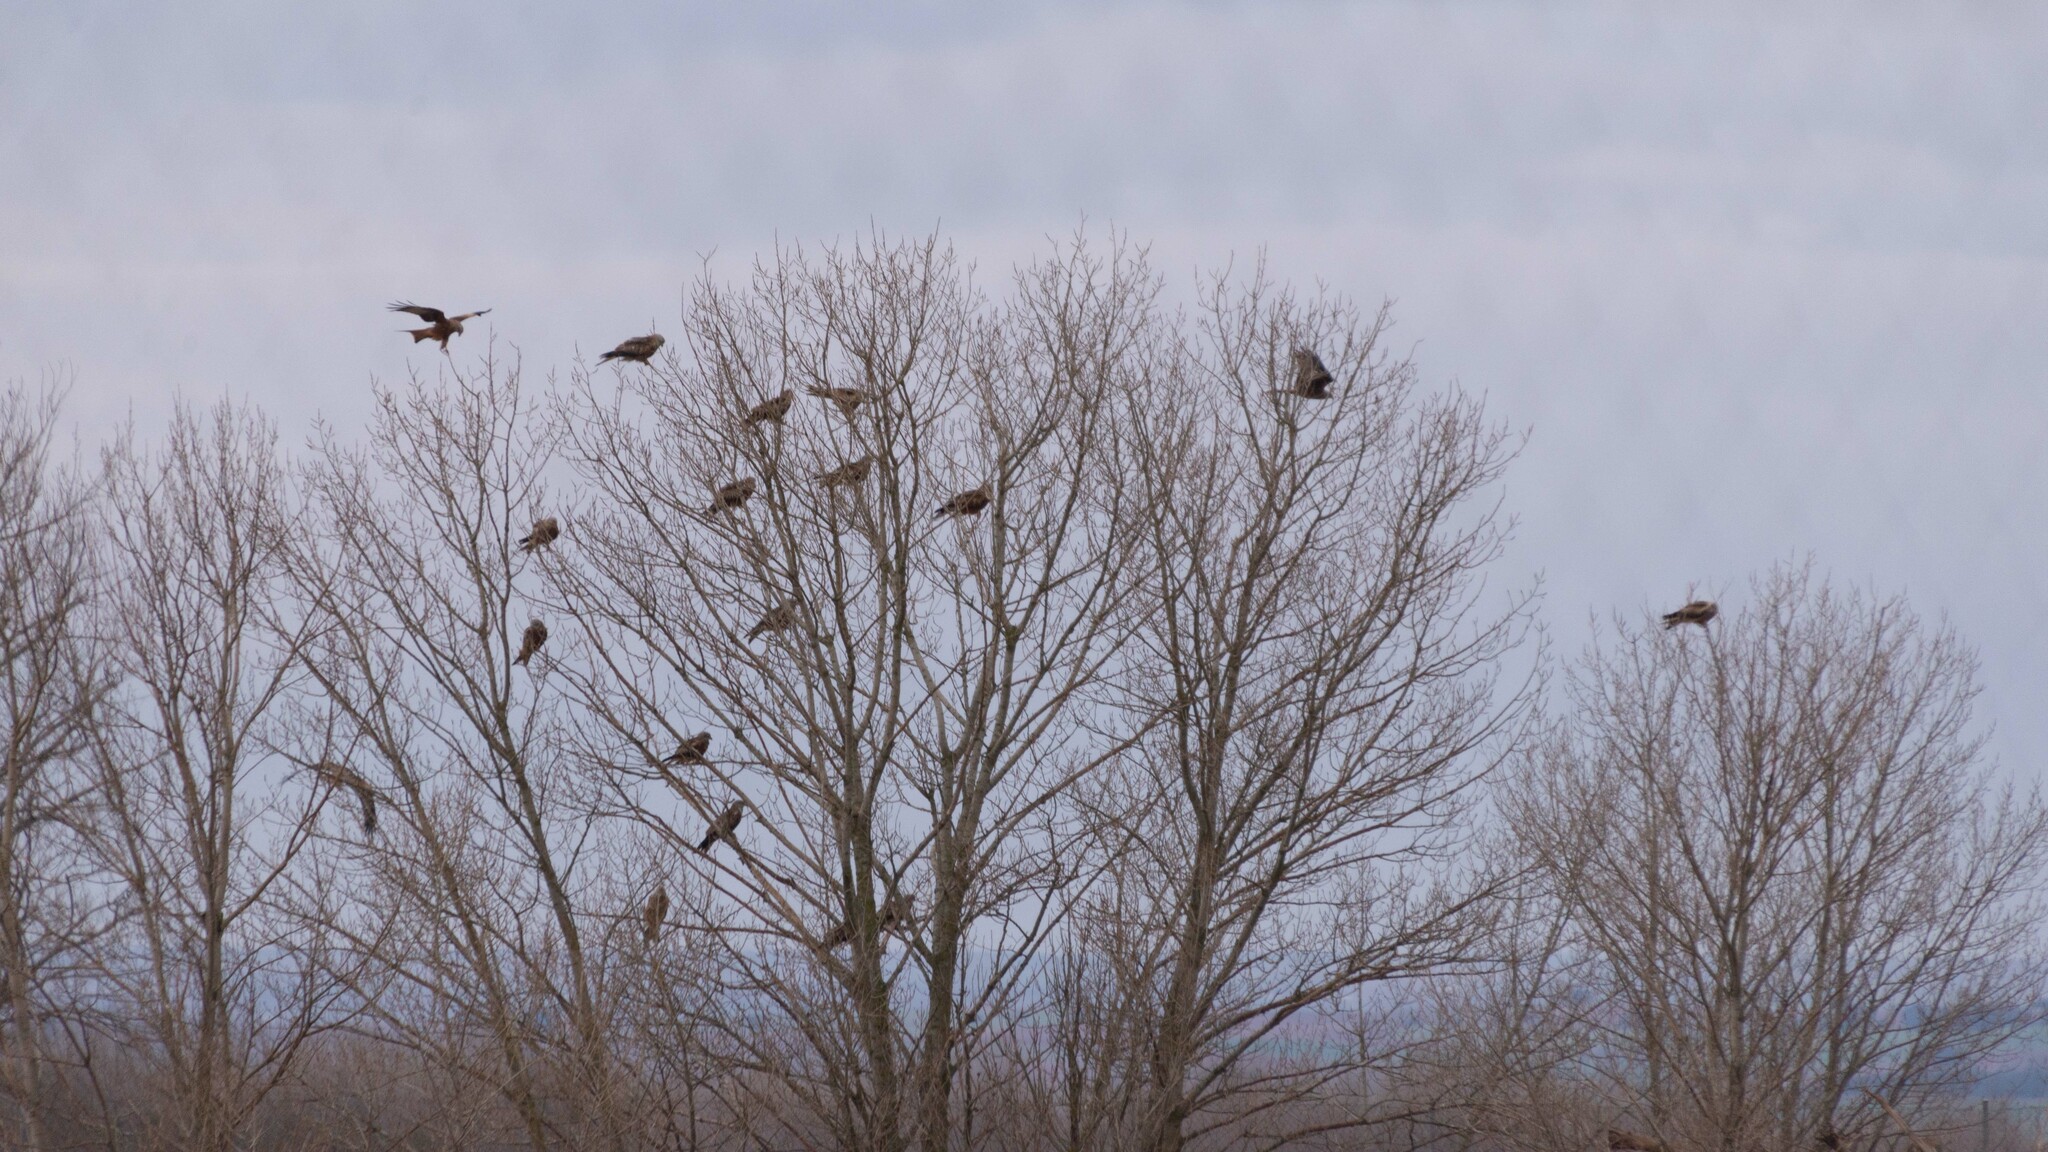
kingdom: Animalia
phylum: Chordata
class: Aves
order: Accipitriformes
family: Accipitridae
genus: Milvus
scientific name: Milvus milvus
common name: Red kite
